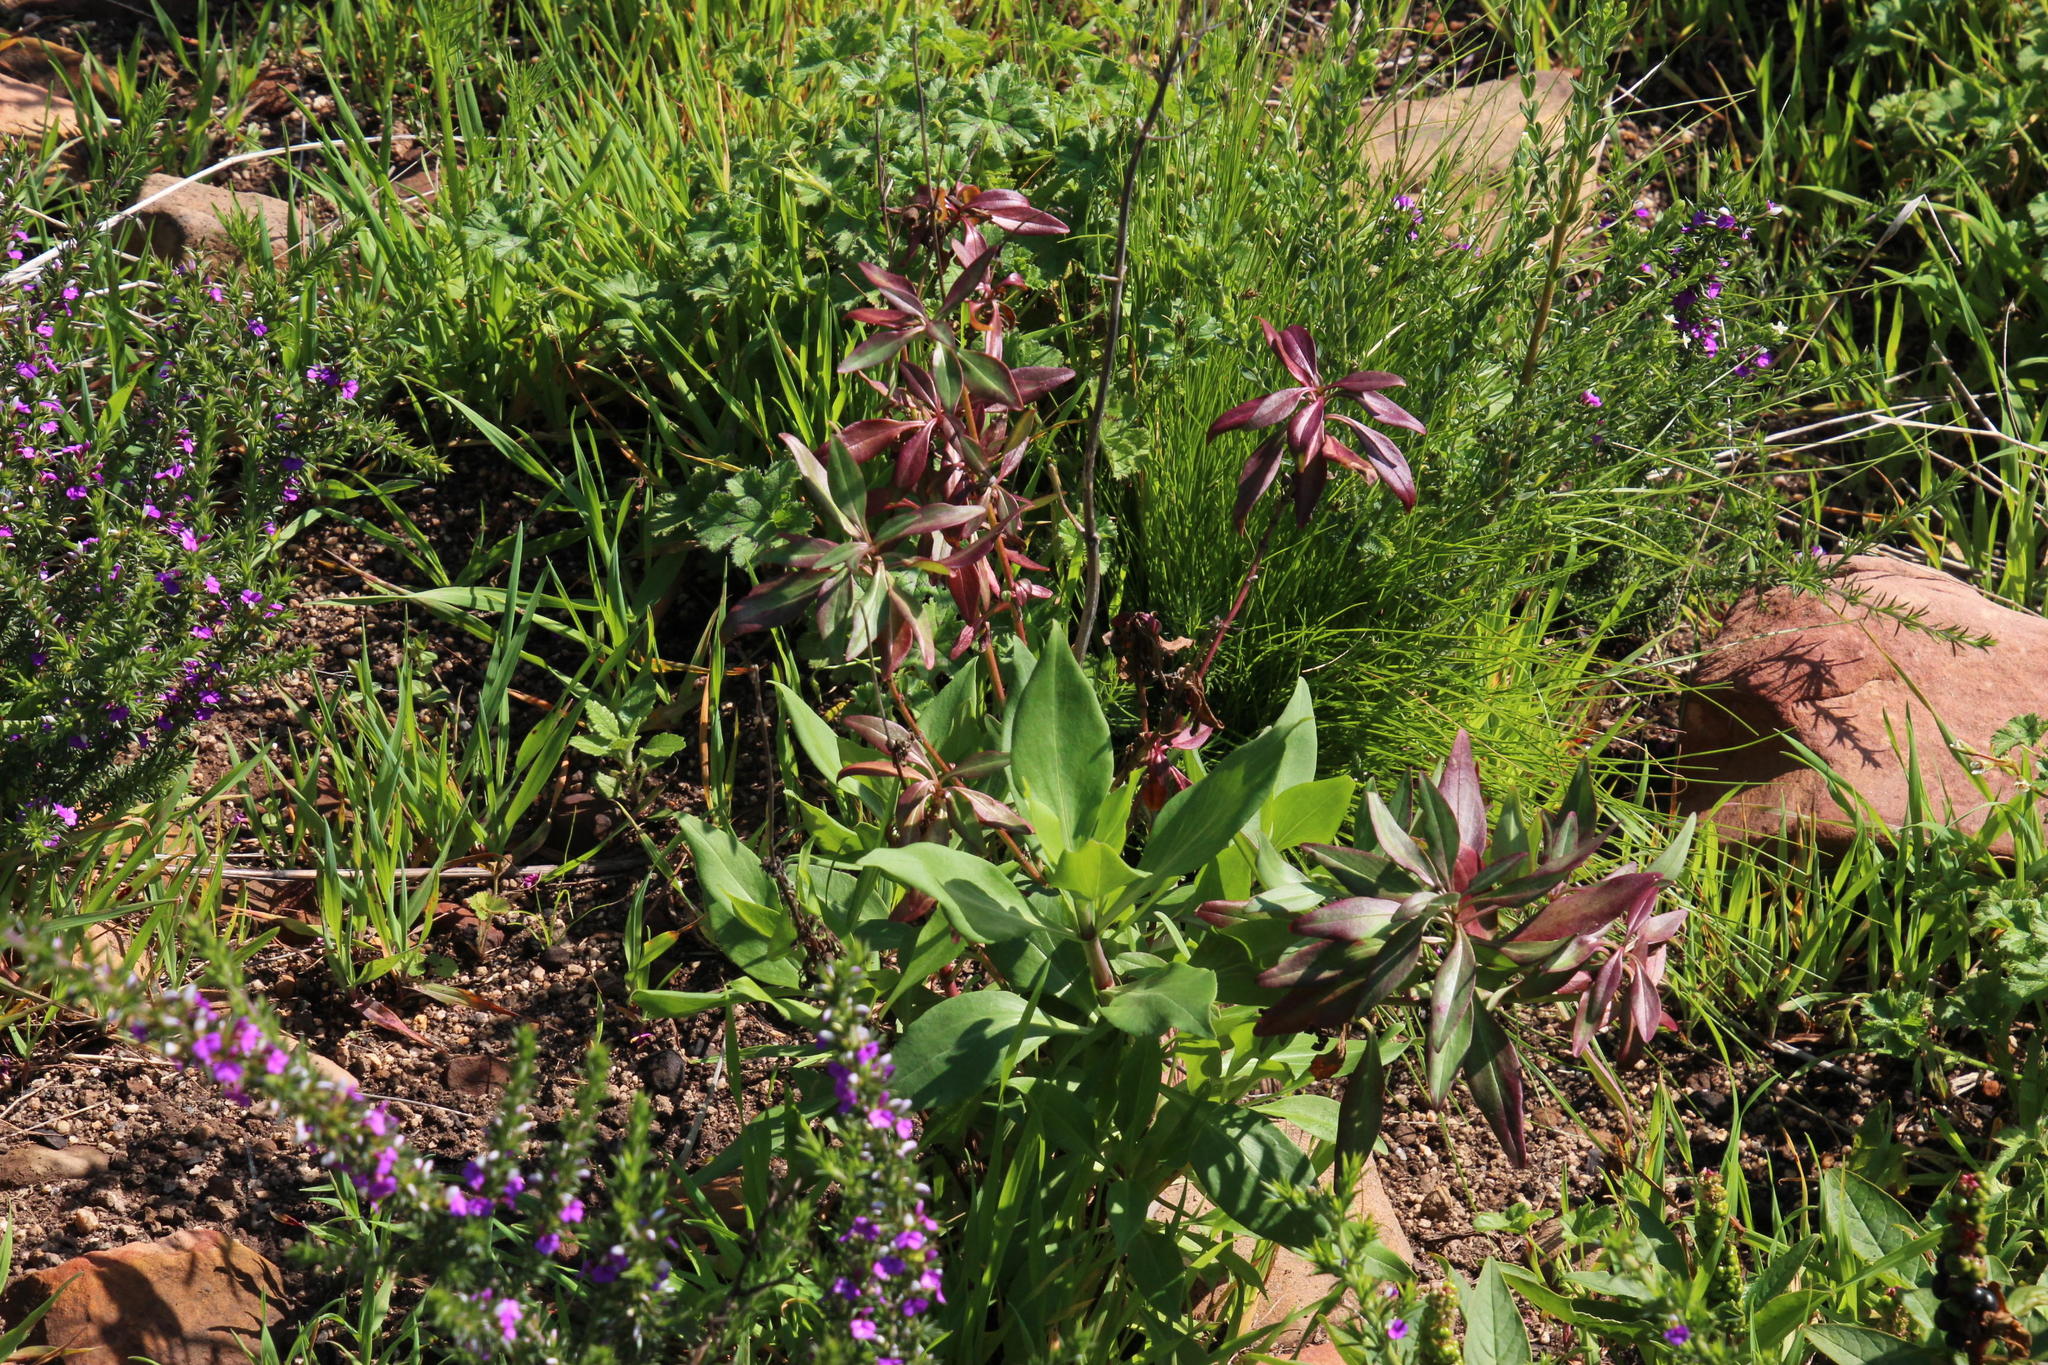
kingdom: Plantae
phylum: Tracheophyta
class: Magnoliopsida
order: Dipsacales
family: Caprifoliaceae
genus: Centranthus
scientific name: Centranthus ruber
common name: Red valerian
